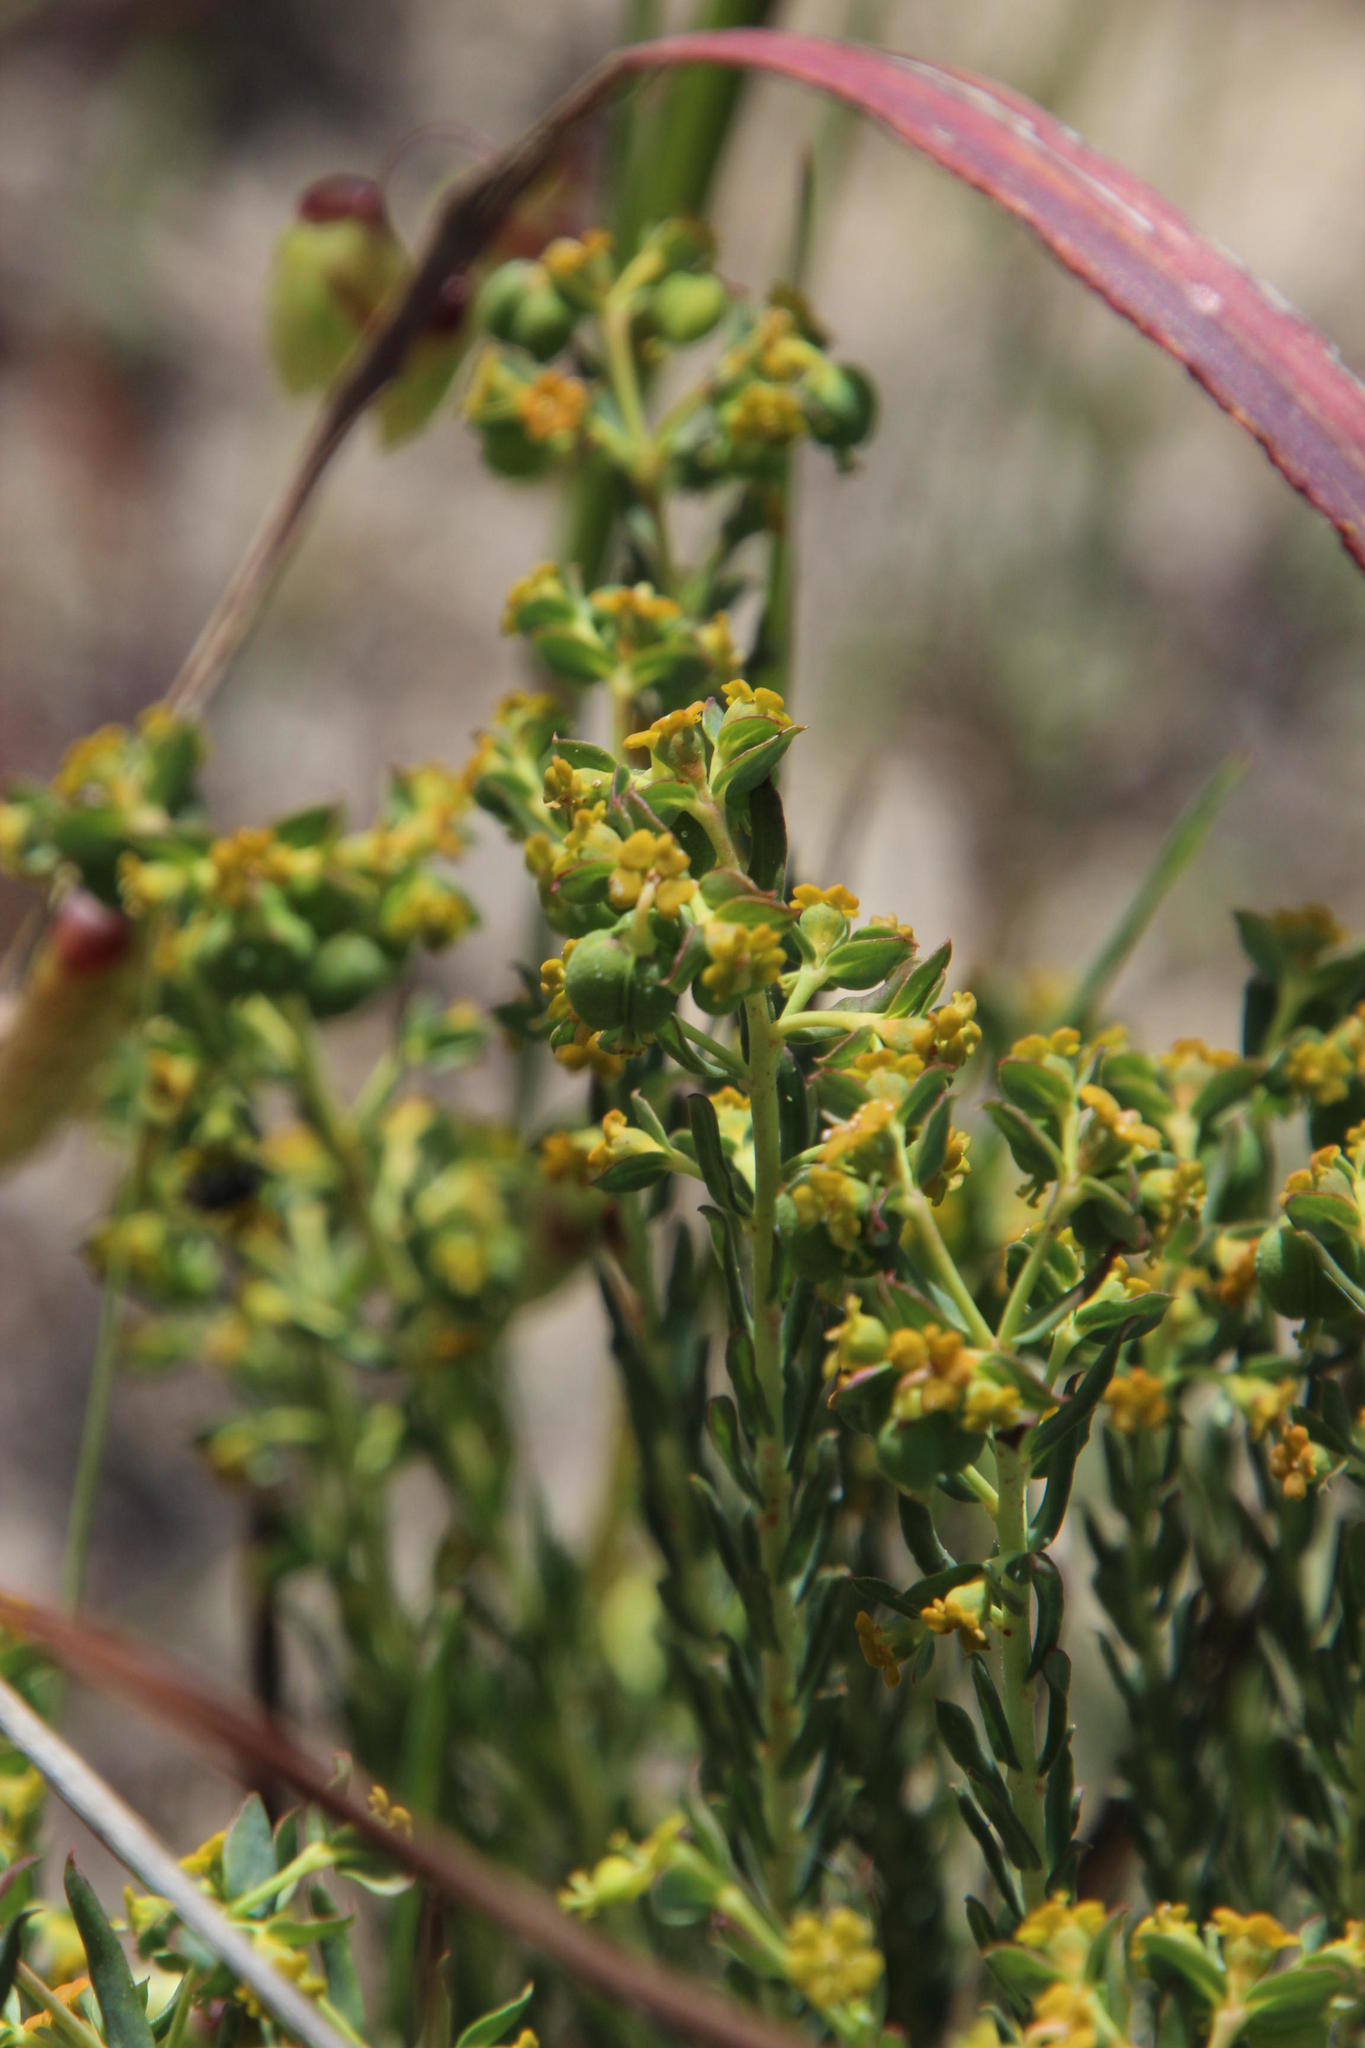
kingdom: Plantae
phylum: Tracheophyta
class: Magnoliopsida
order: Malpighiales
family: Euphorbiaceae
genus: Euphorbia
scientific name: Euphorbia genistoides
